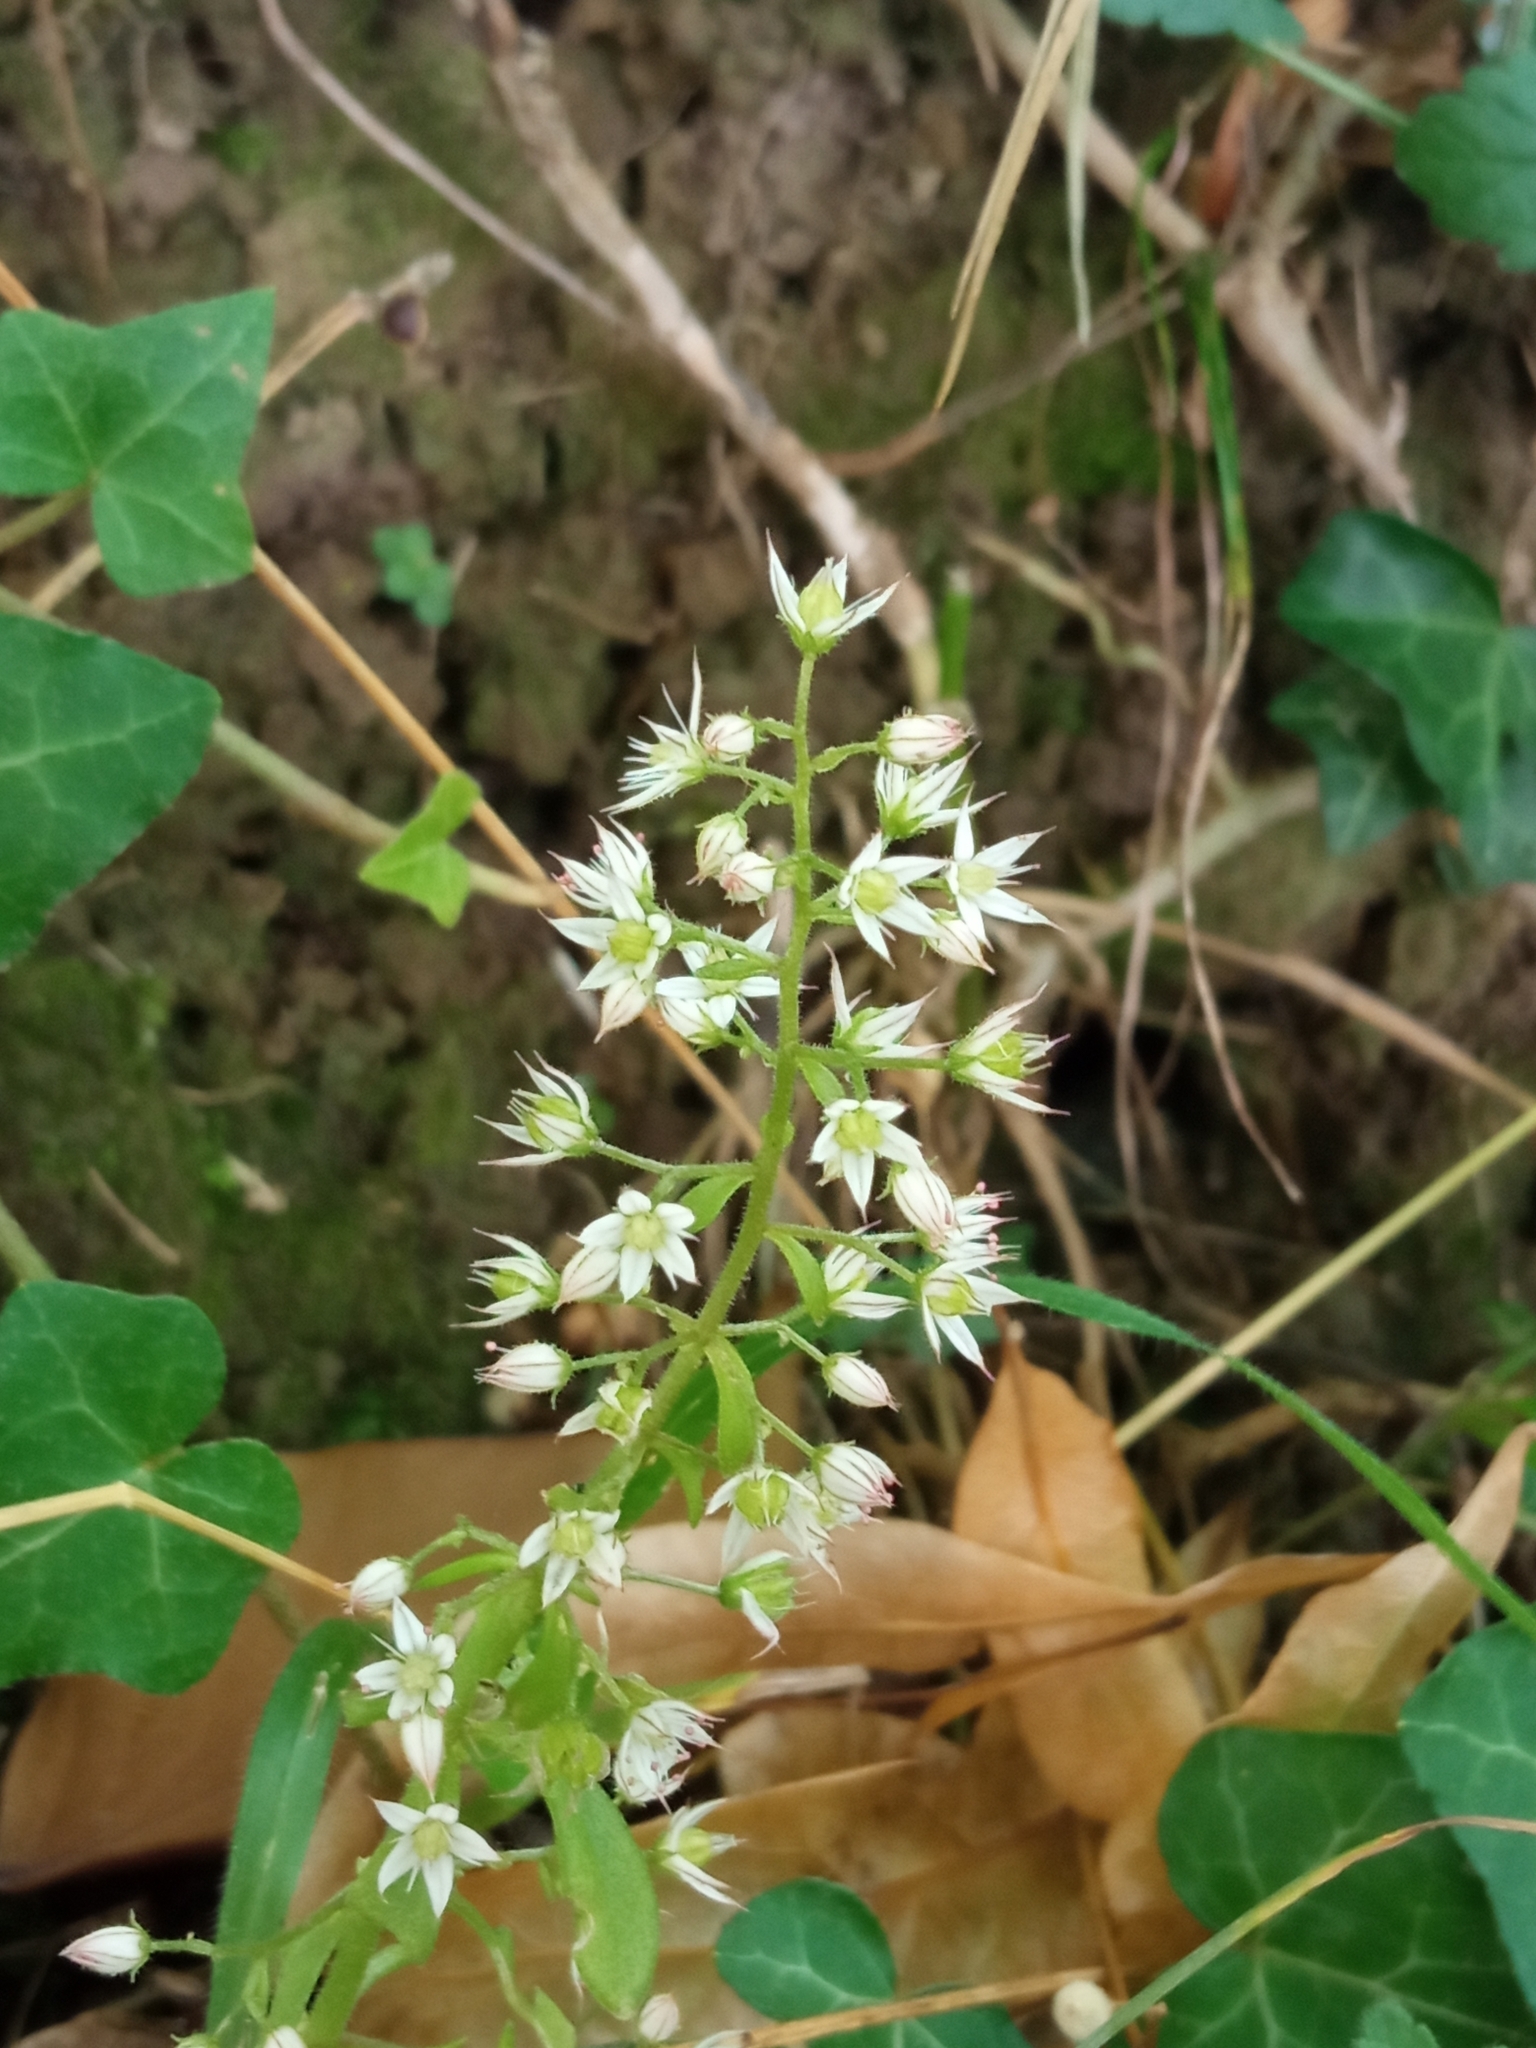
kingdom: Plantae
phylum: Tracheophyta
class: Magnoliopsida
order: Saxifragales
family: Crassulaceae
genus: Sedum
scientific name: Sedum cepaea
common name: Pink stonecrop
